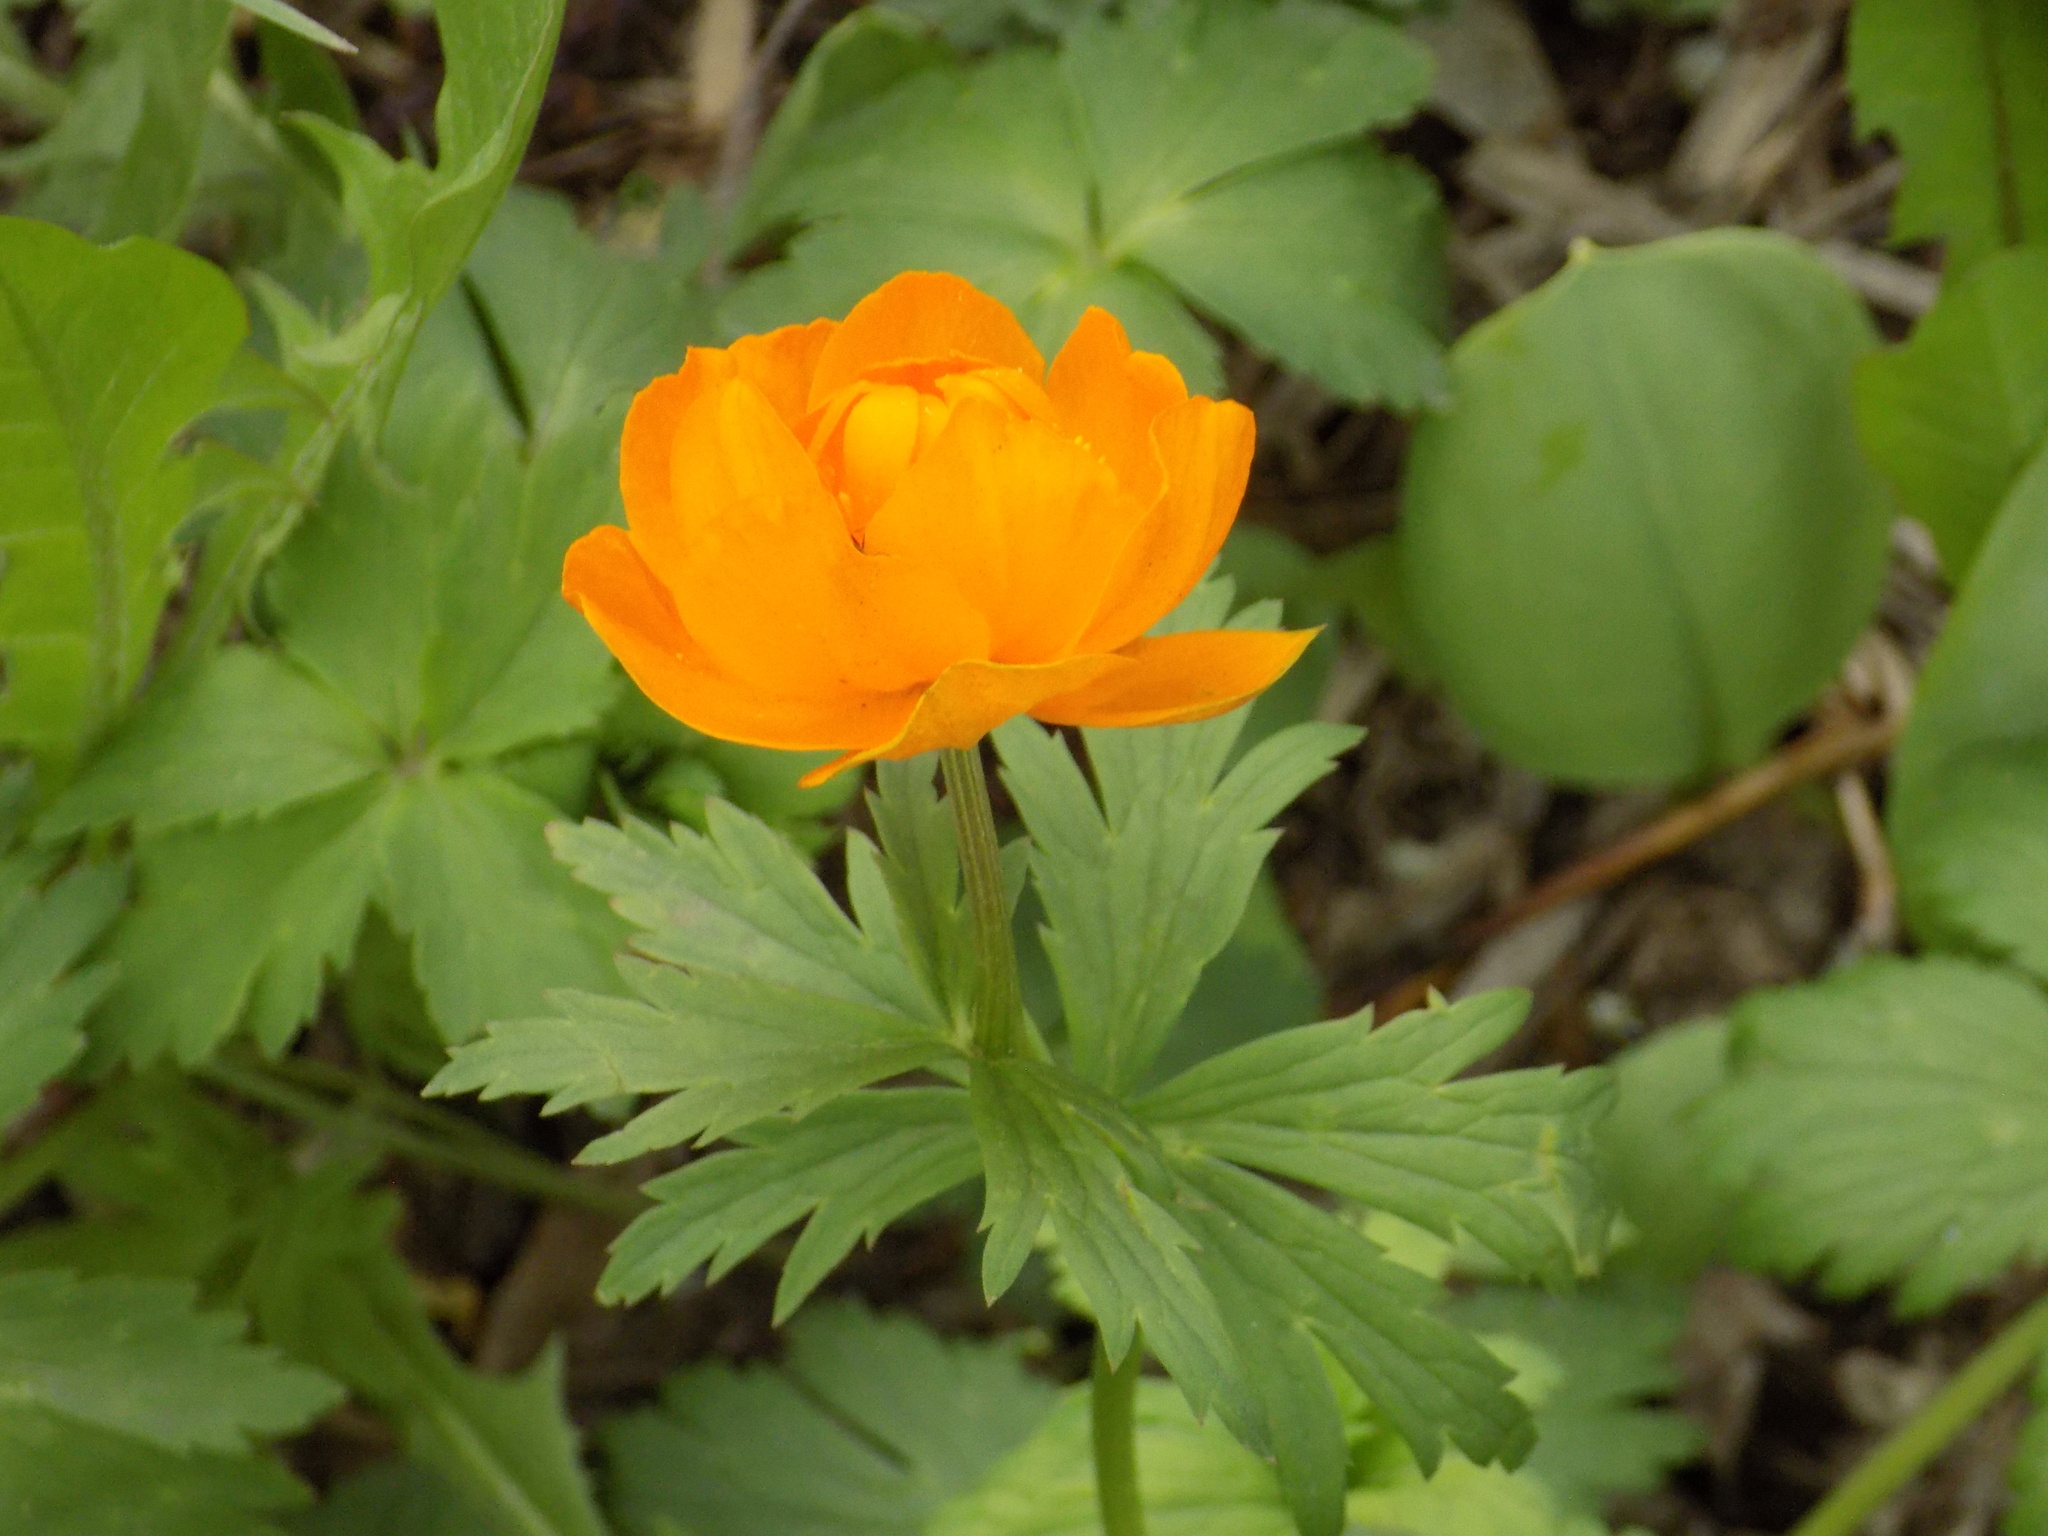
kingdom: Plantae
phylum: Tracheophyta
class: Magnoliopsida
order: Ranunculales
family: Ranunculaceae
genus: Trollius
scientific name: Trollius asiaticus
